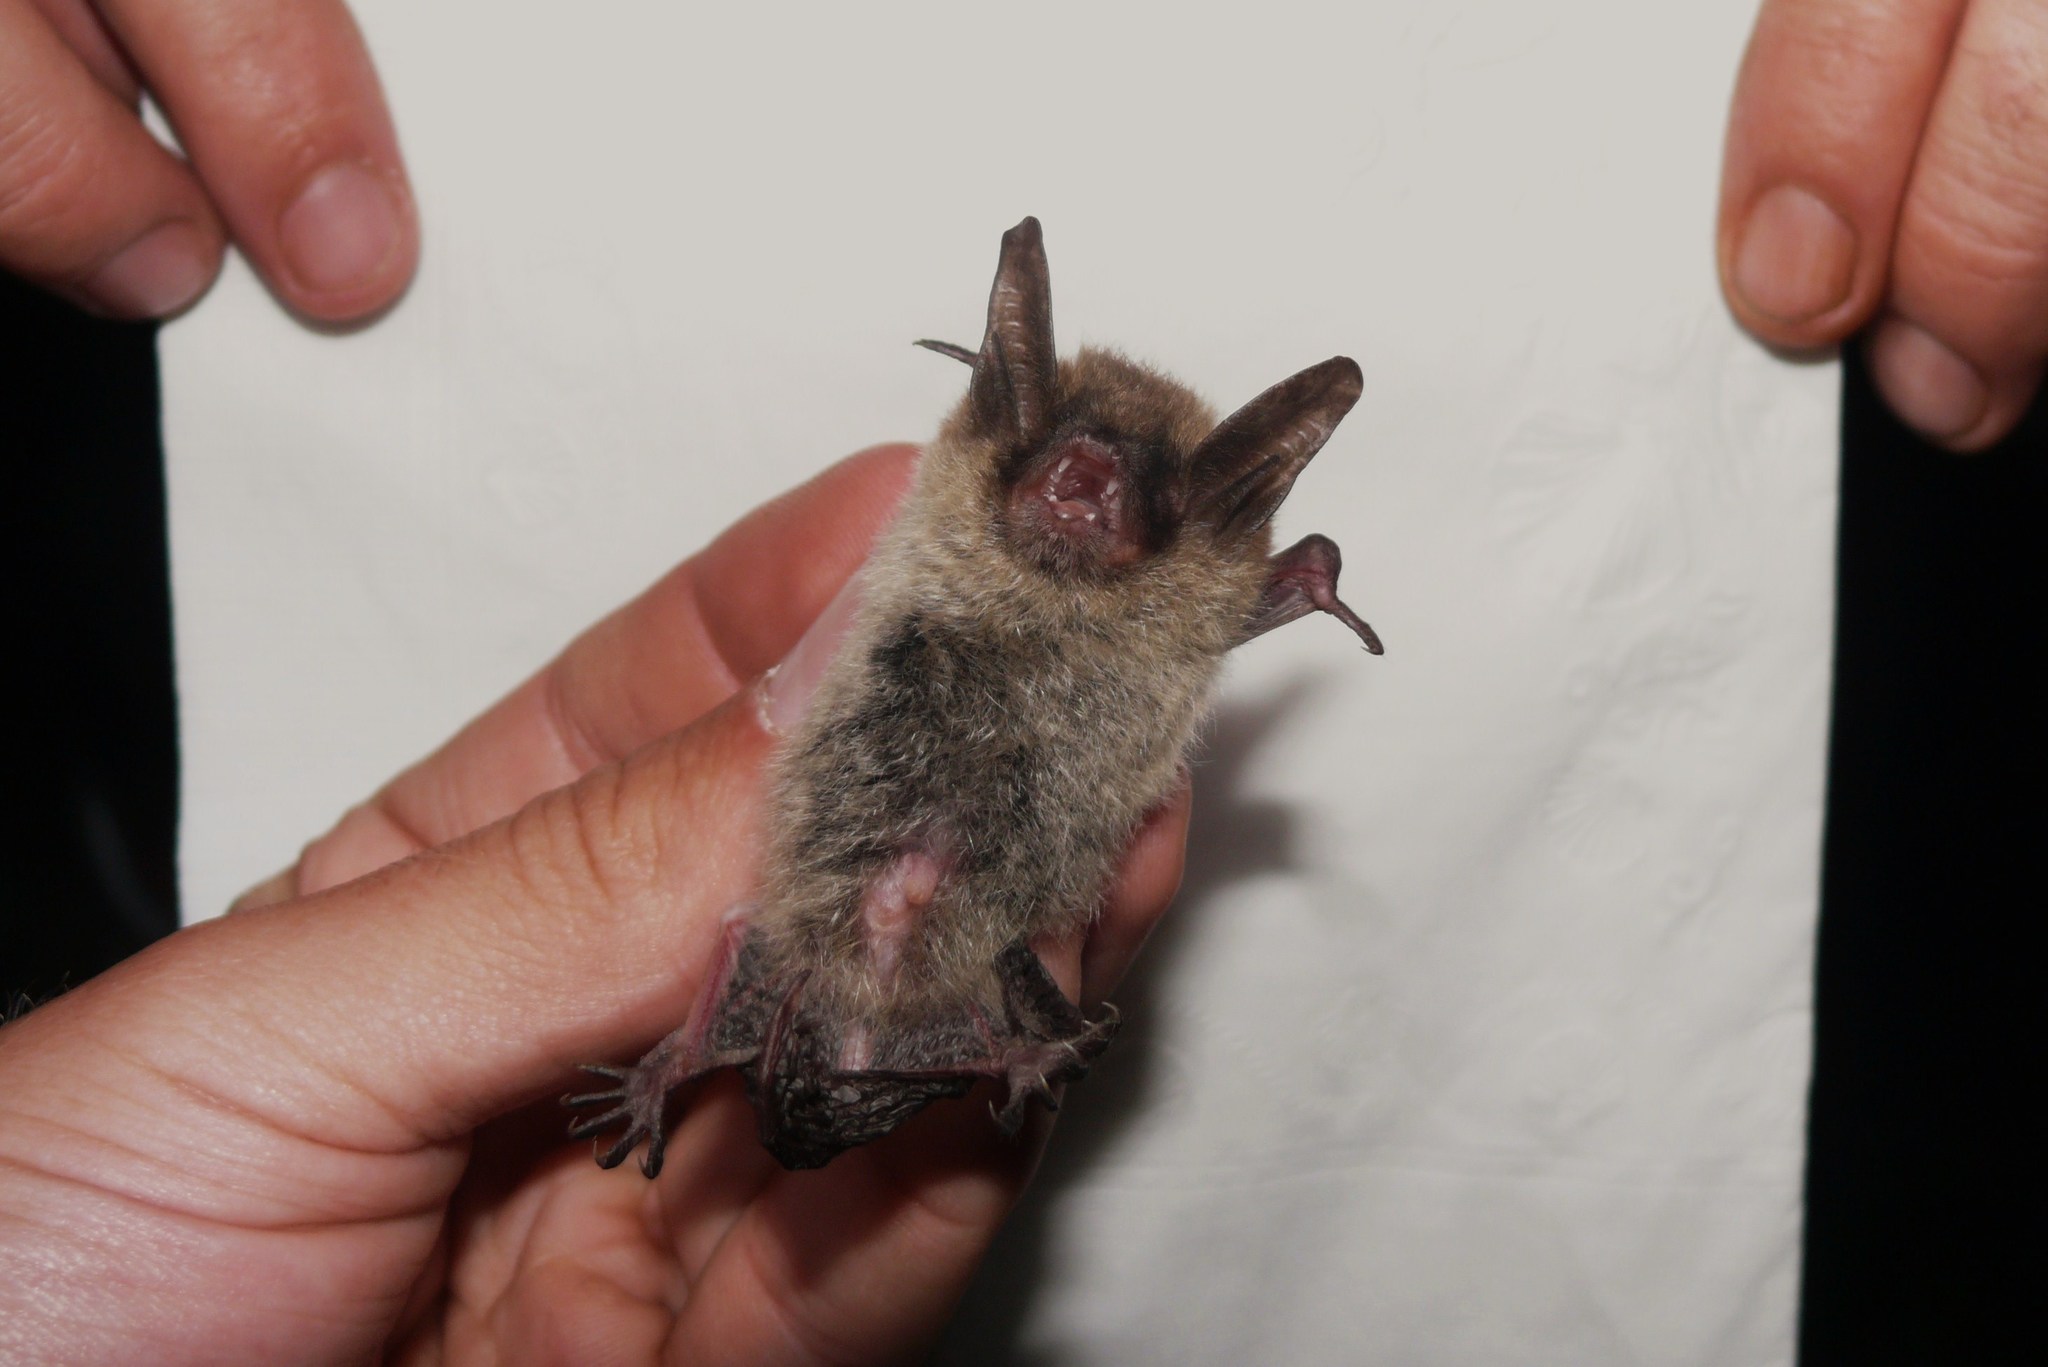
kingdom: Animalia
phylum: Chordata
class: Mammalia
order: Chiroptera
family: Vespertilionidae
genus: Myotis
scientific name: Myotis septentrionalis
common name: Northern myotis
